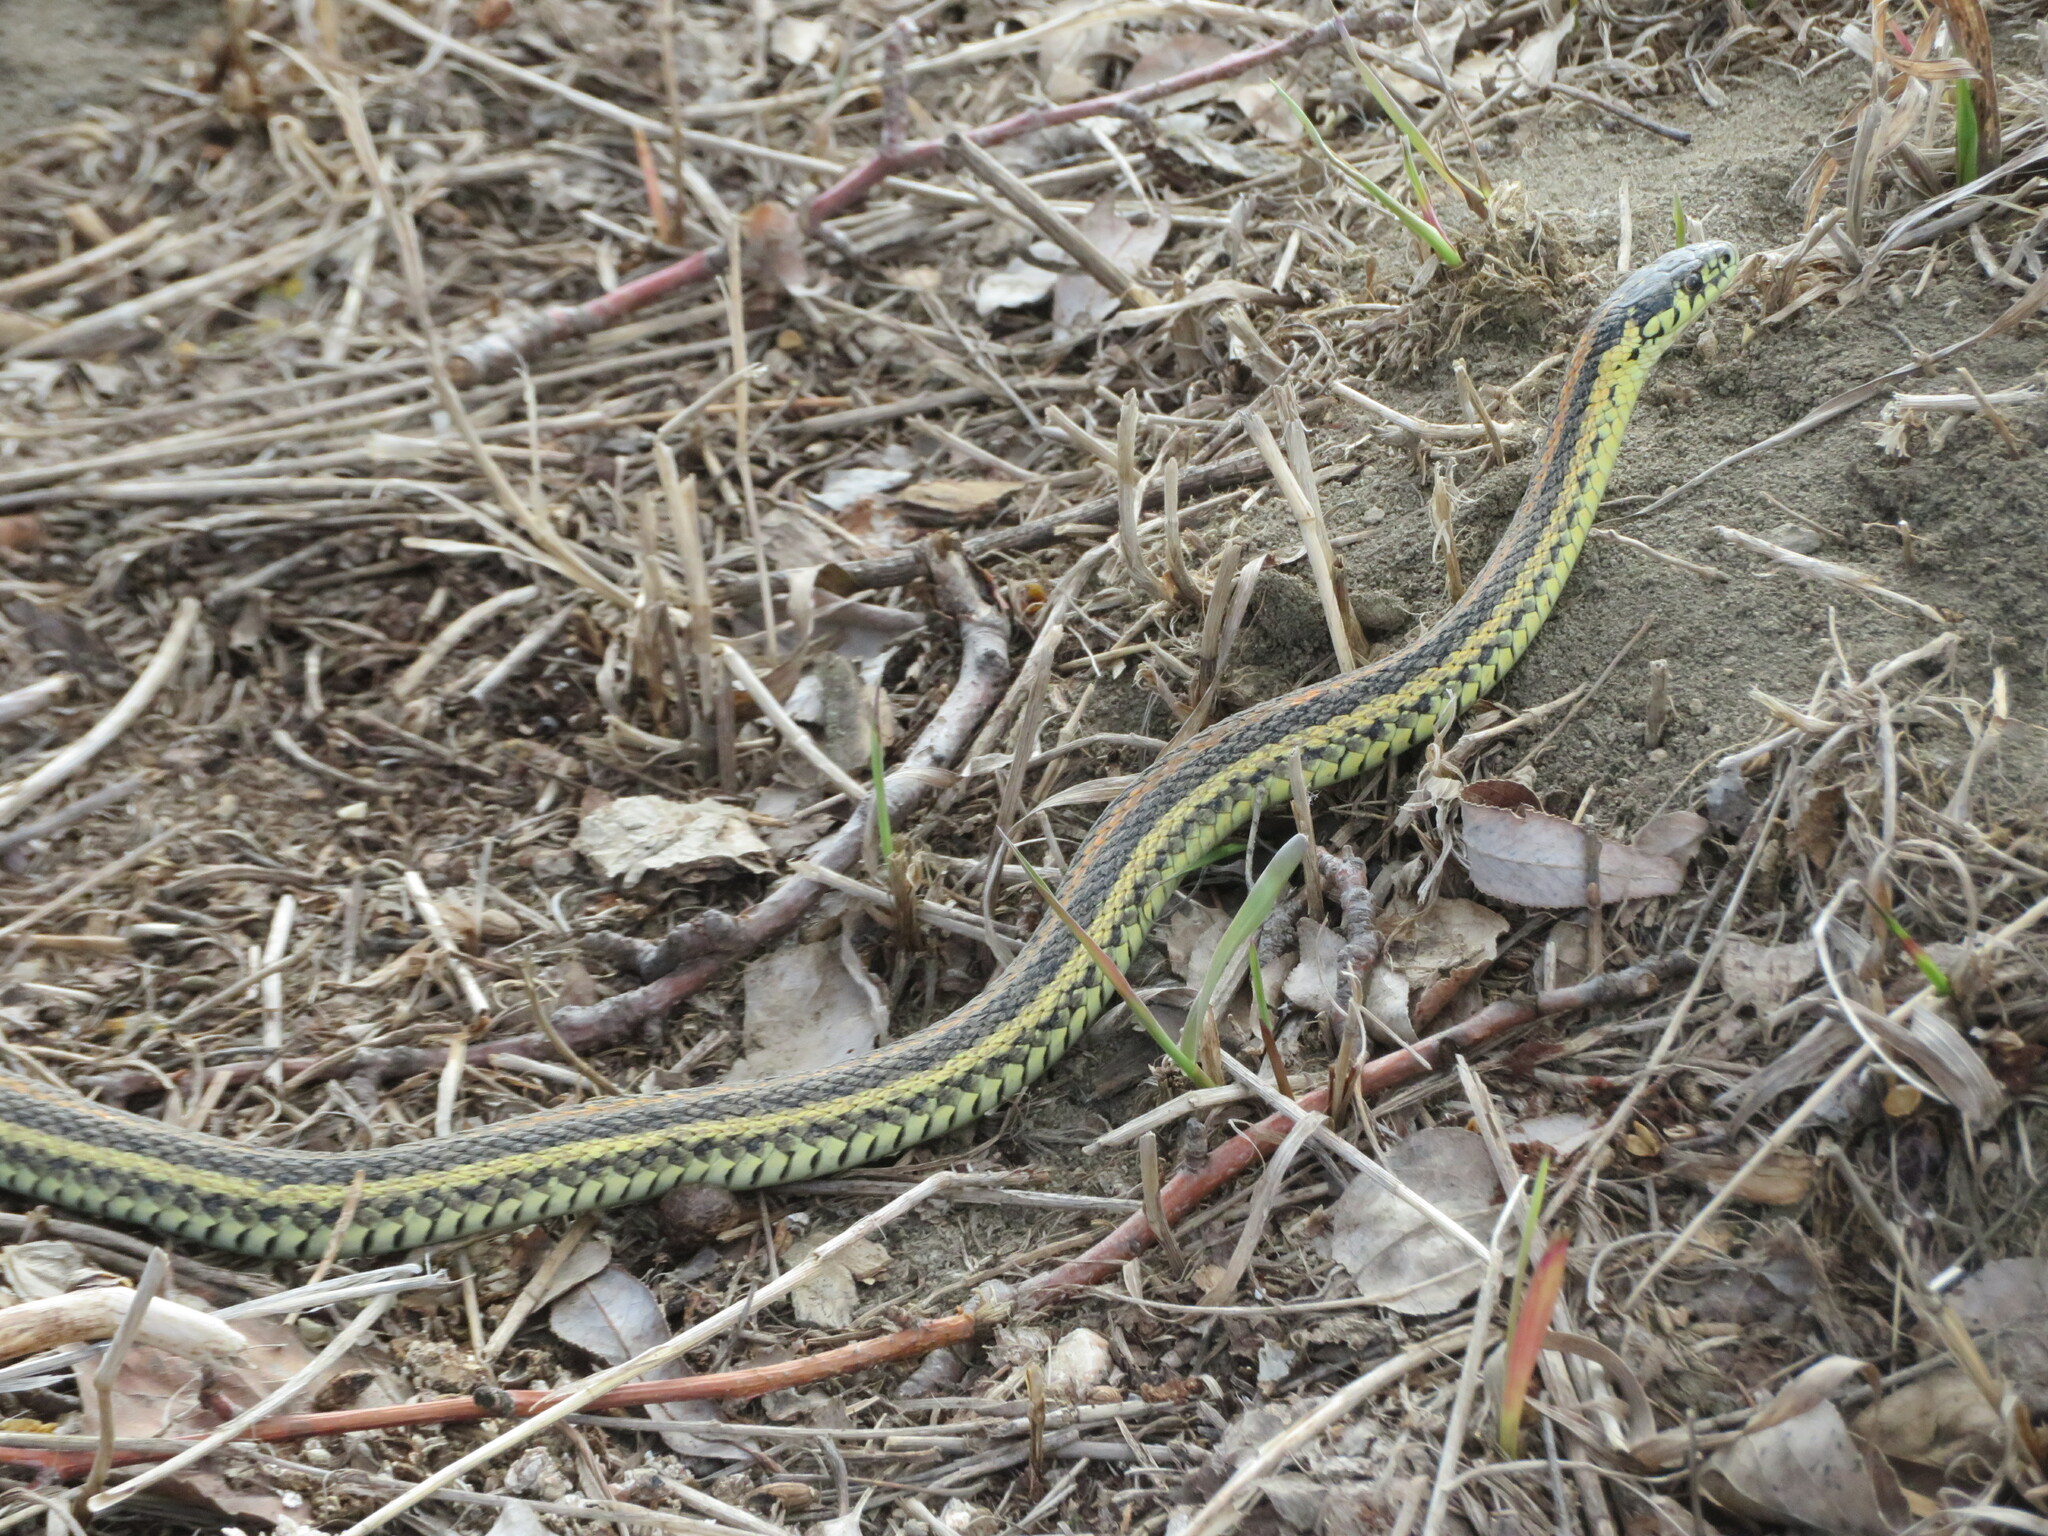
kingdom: Animalia
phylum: Chordata
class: Squamata
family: Colubridae
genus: Thamnophis
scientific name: Thamnophis radix
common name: Plains garter snake
